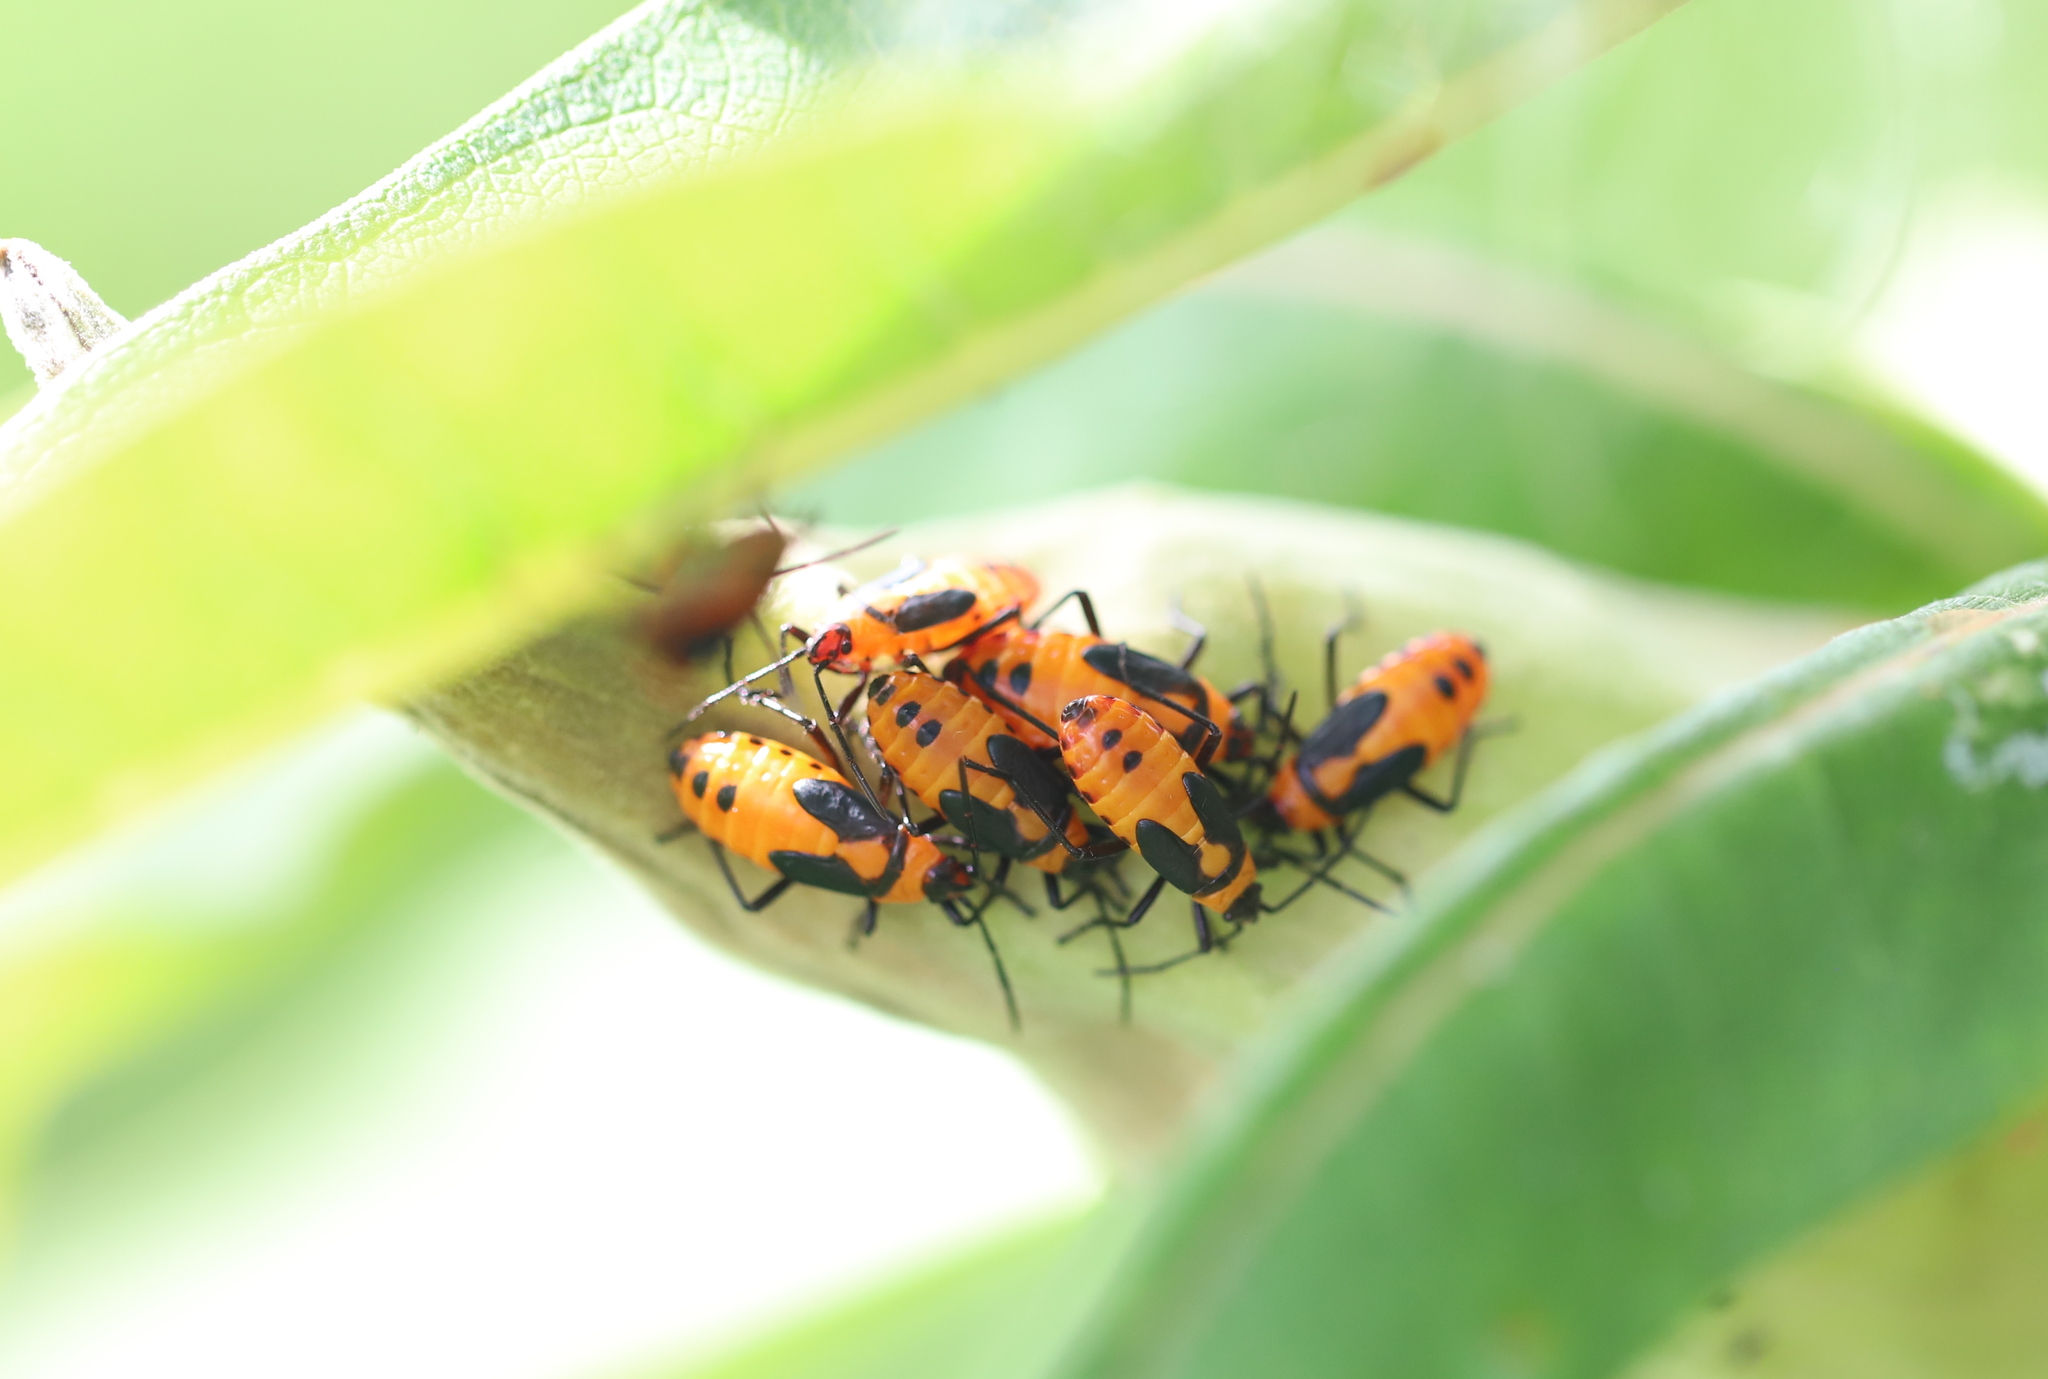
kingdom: Animalia
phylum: Arthropoda
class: Insecta
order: Hemiptera
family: Lygaeidae
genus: Oncopeltus
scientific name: Oncopeltus fasciatus
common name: Large milkweed bug
